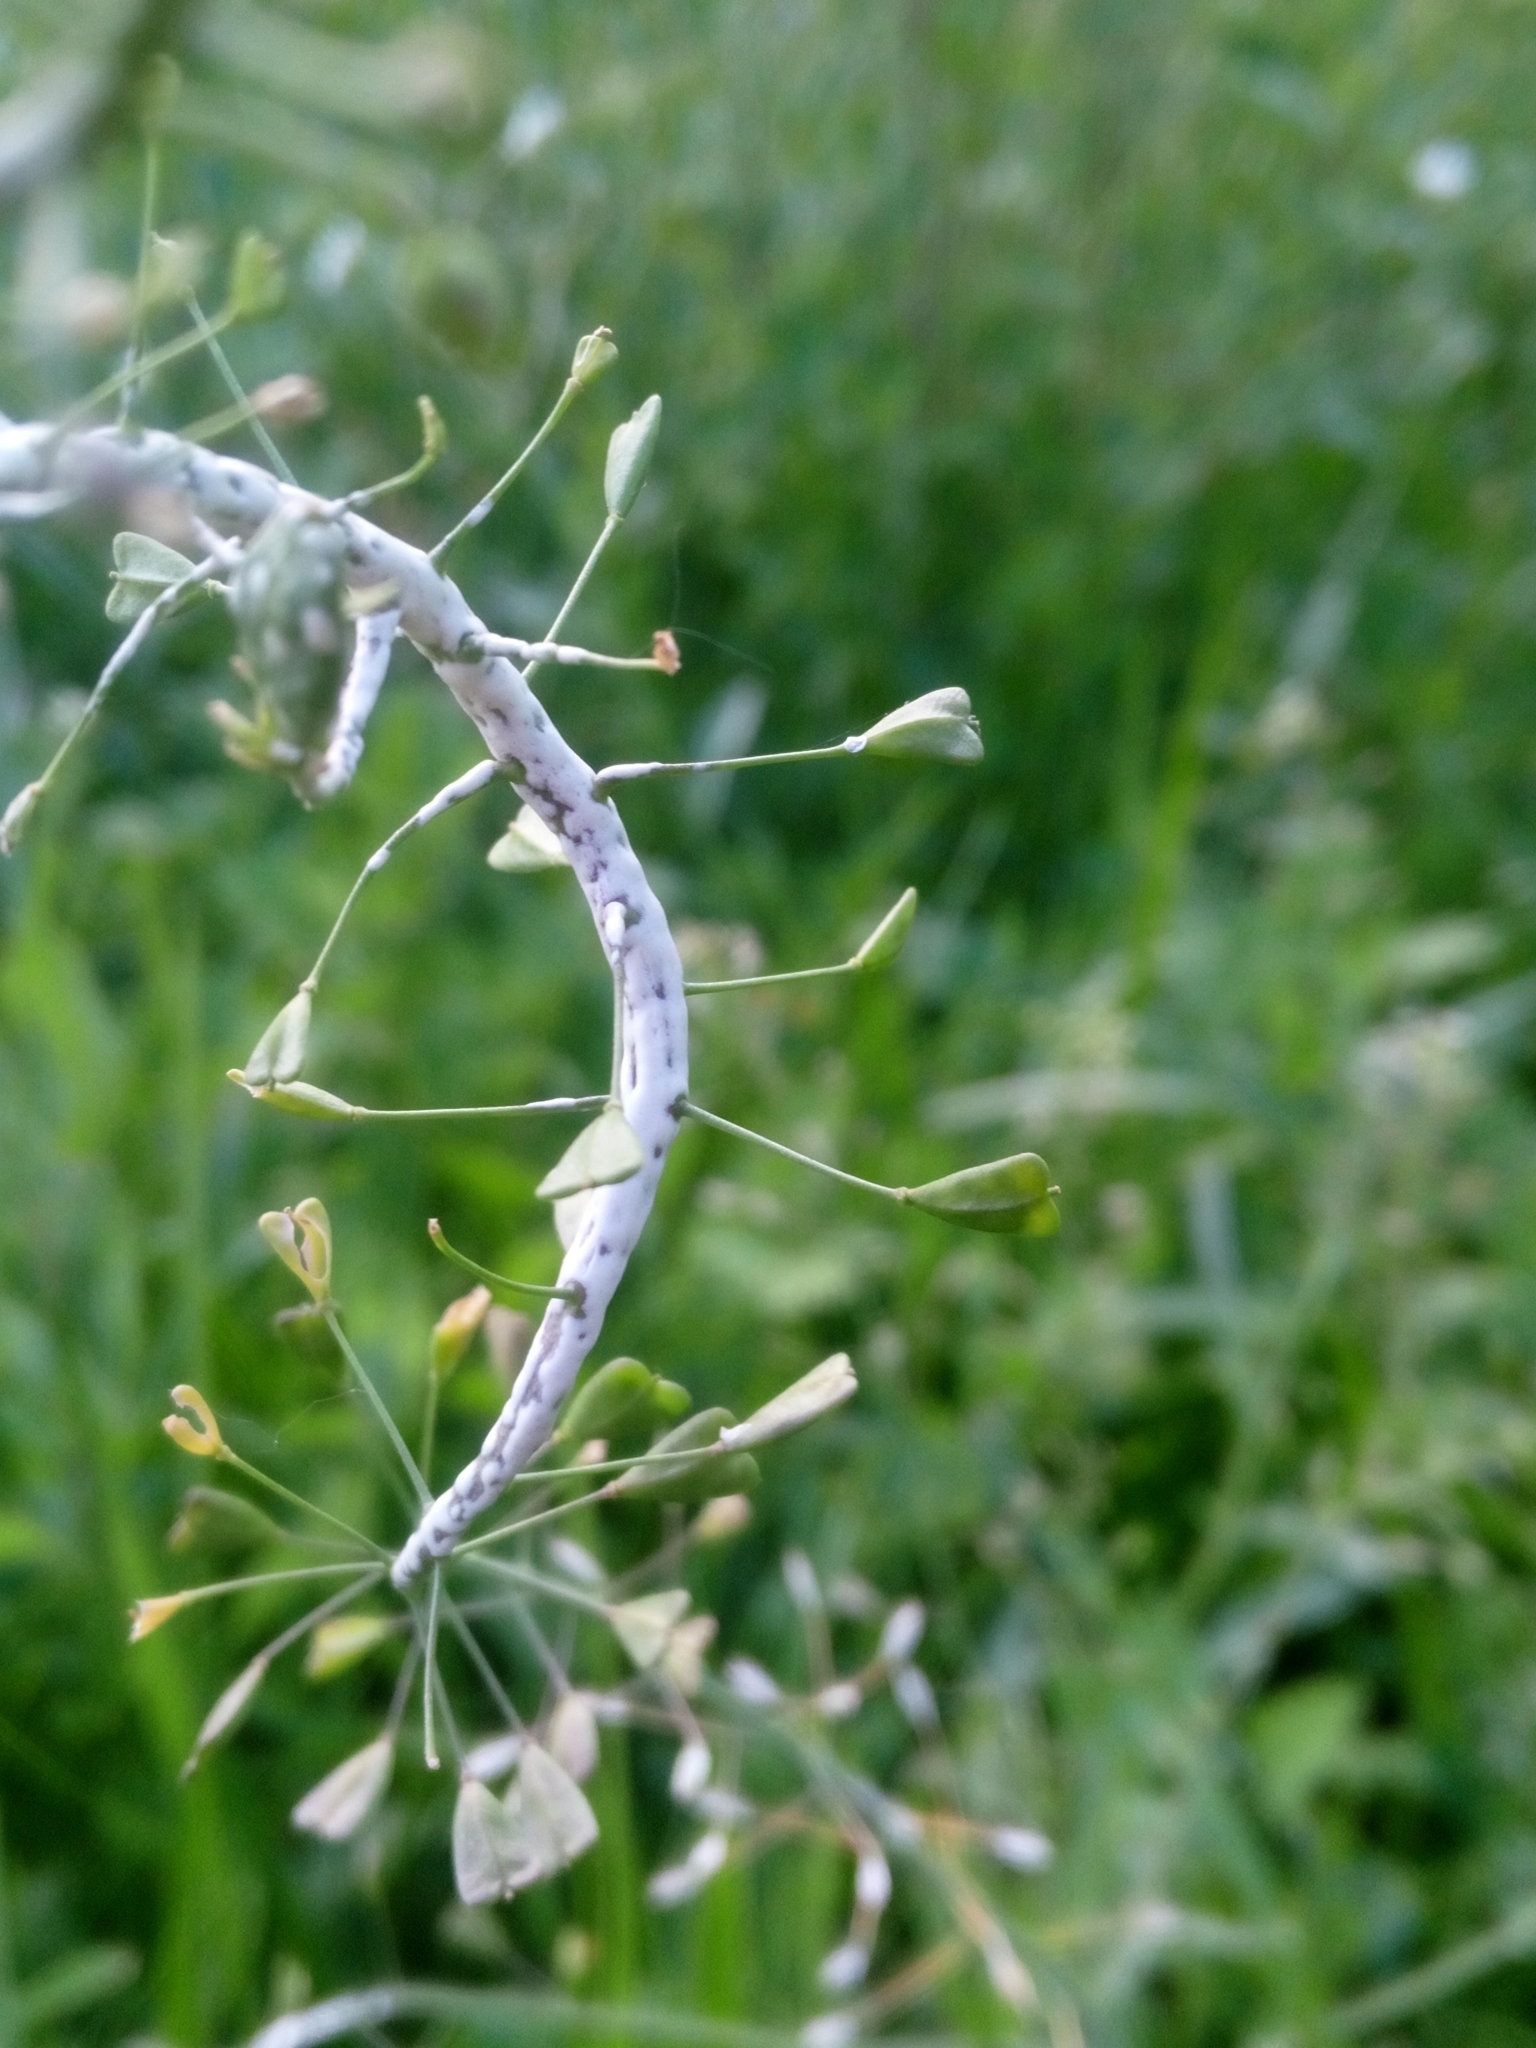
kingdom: Chromista
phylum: Oomycota
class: Peronosporea
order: Albuginales
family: Albuginaceae
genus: Albugo
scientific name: Albugo candida
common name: Crucifer white blister
